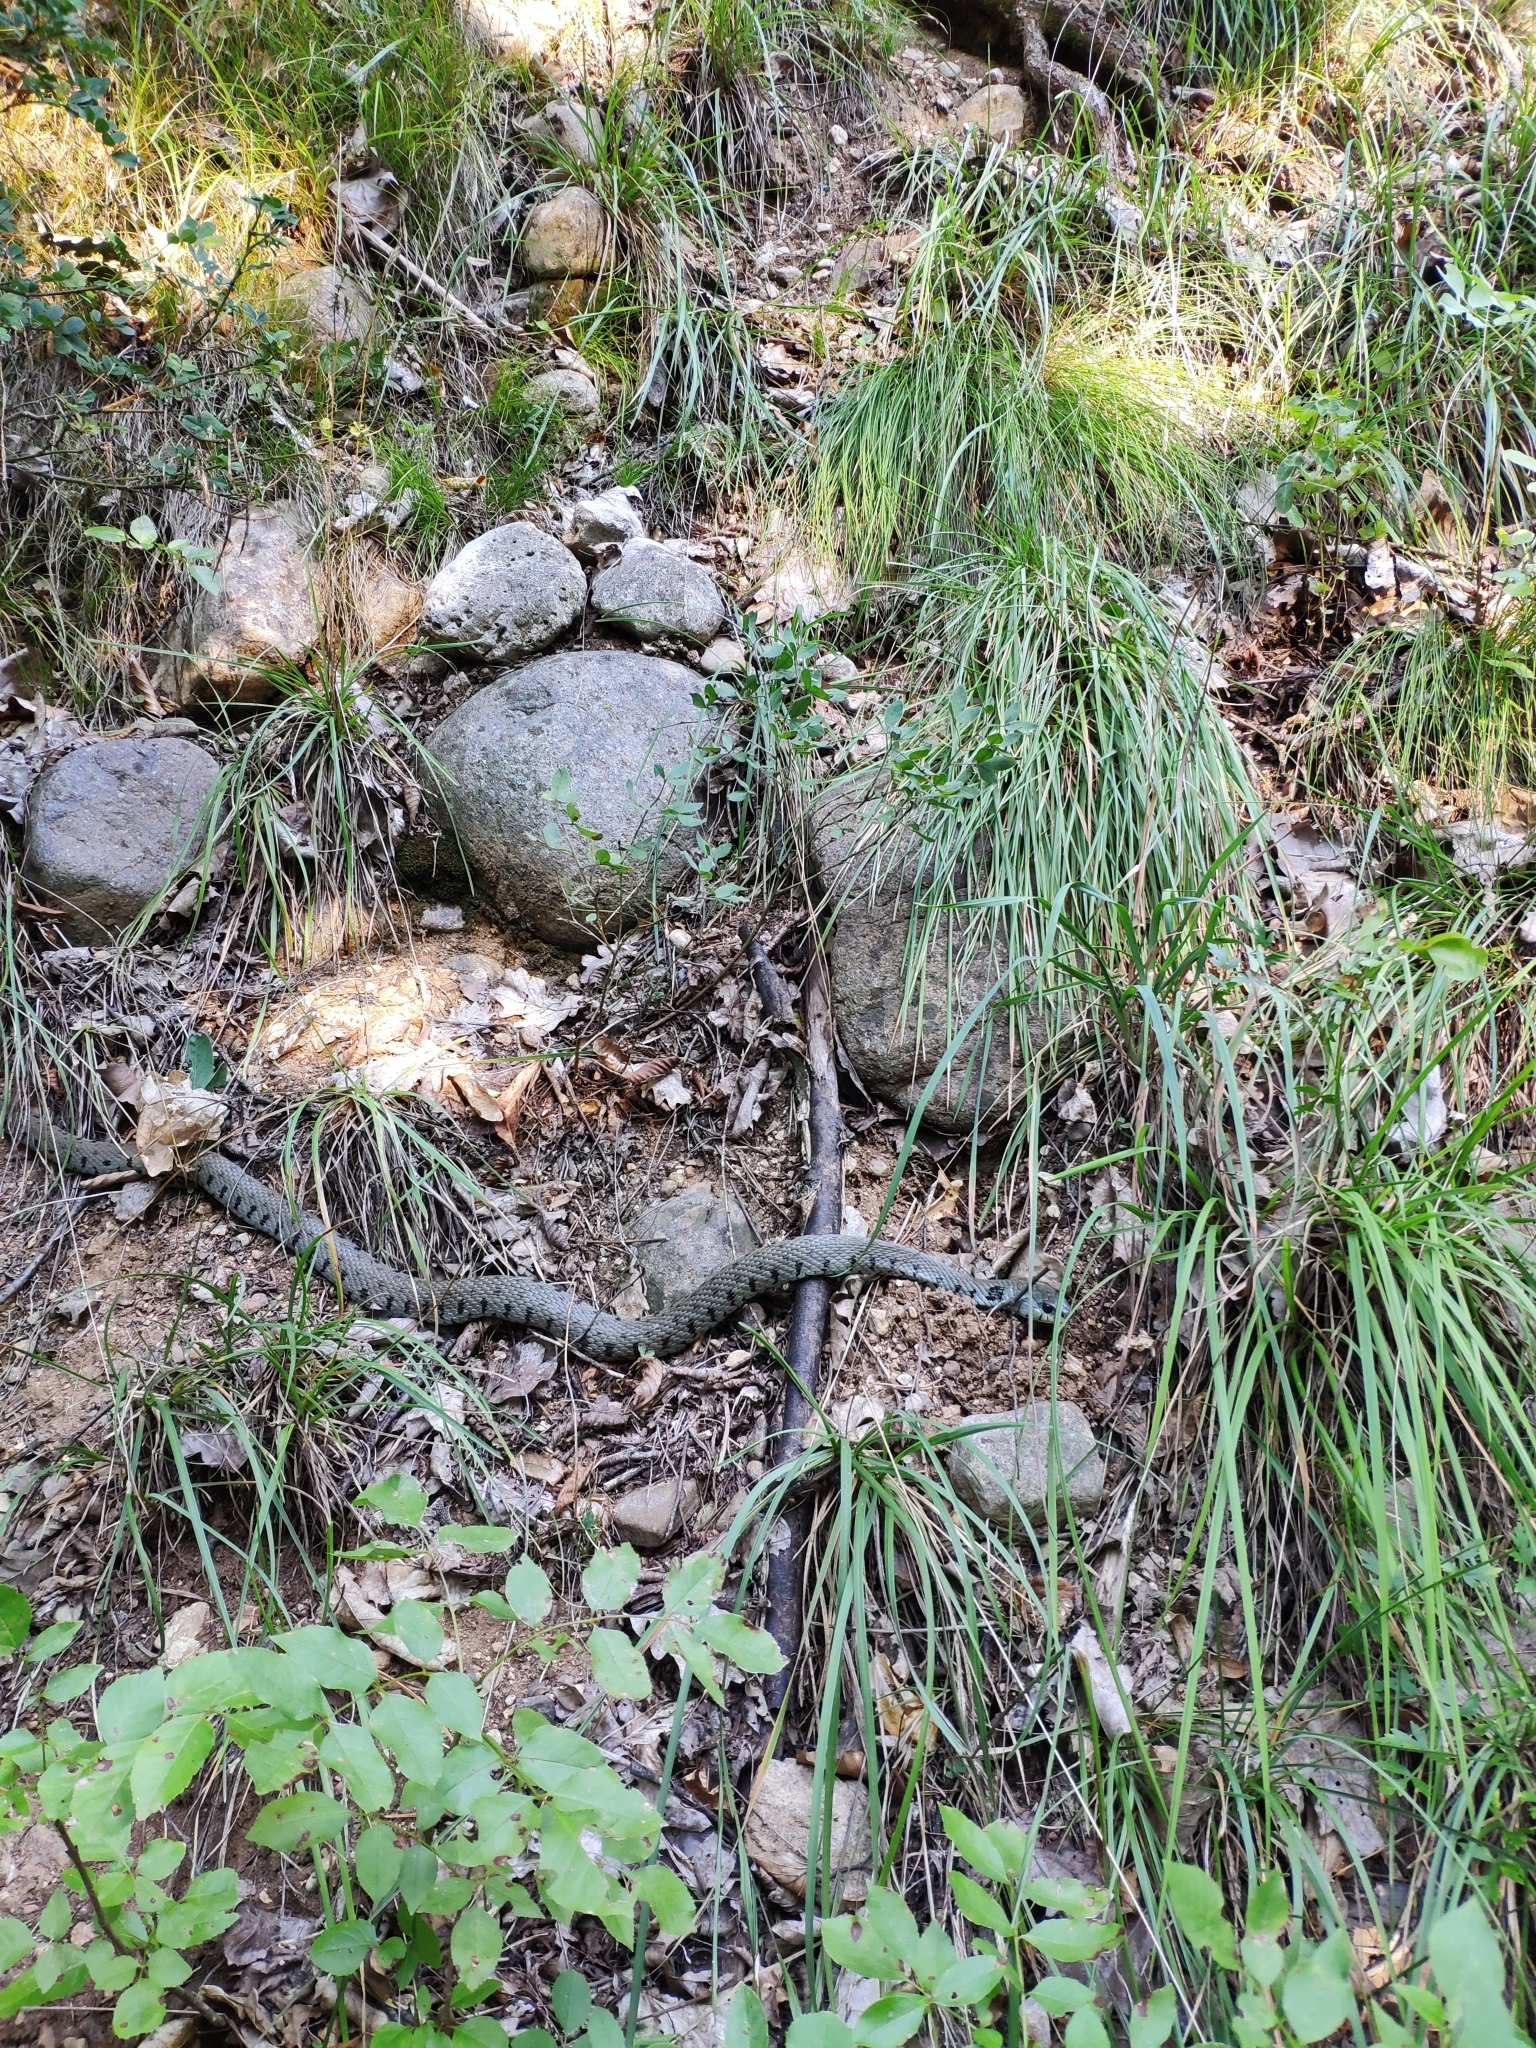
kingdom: Animalia
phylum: Chordata
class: Squamata
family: Colubridae
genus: Natrix
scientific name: Natrix helvetica
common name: Banded grass snake
